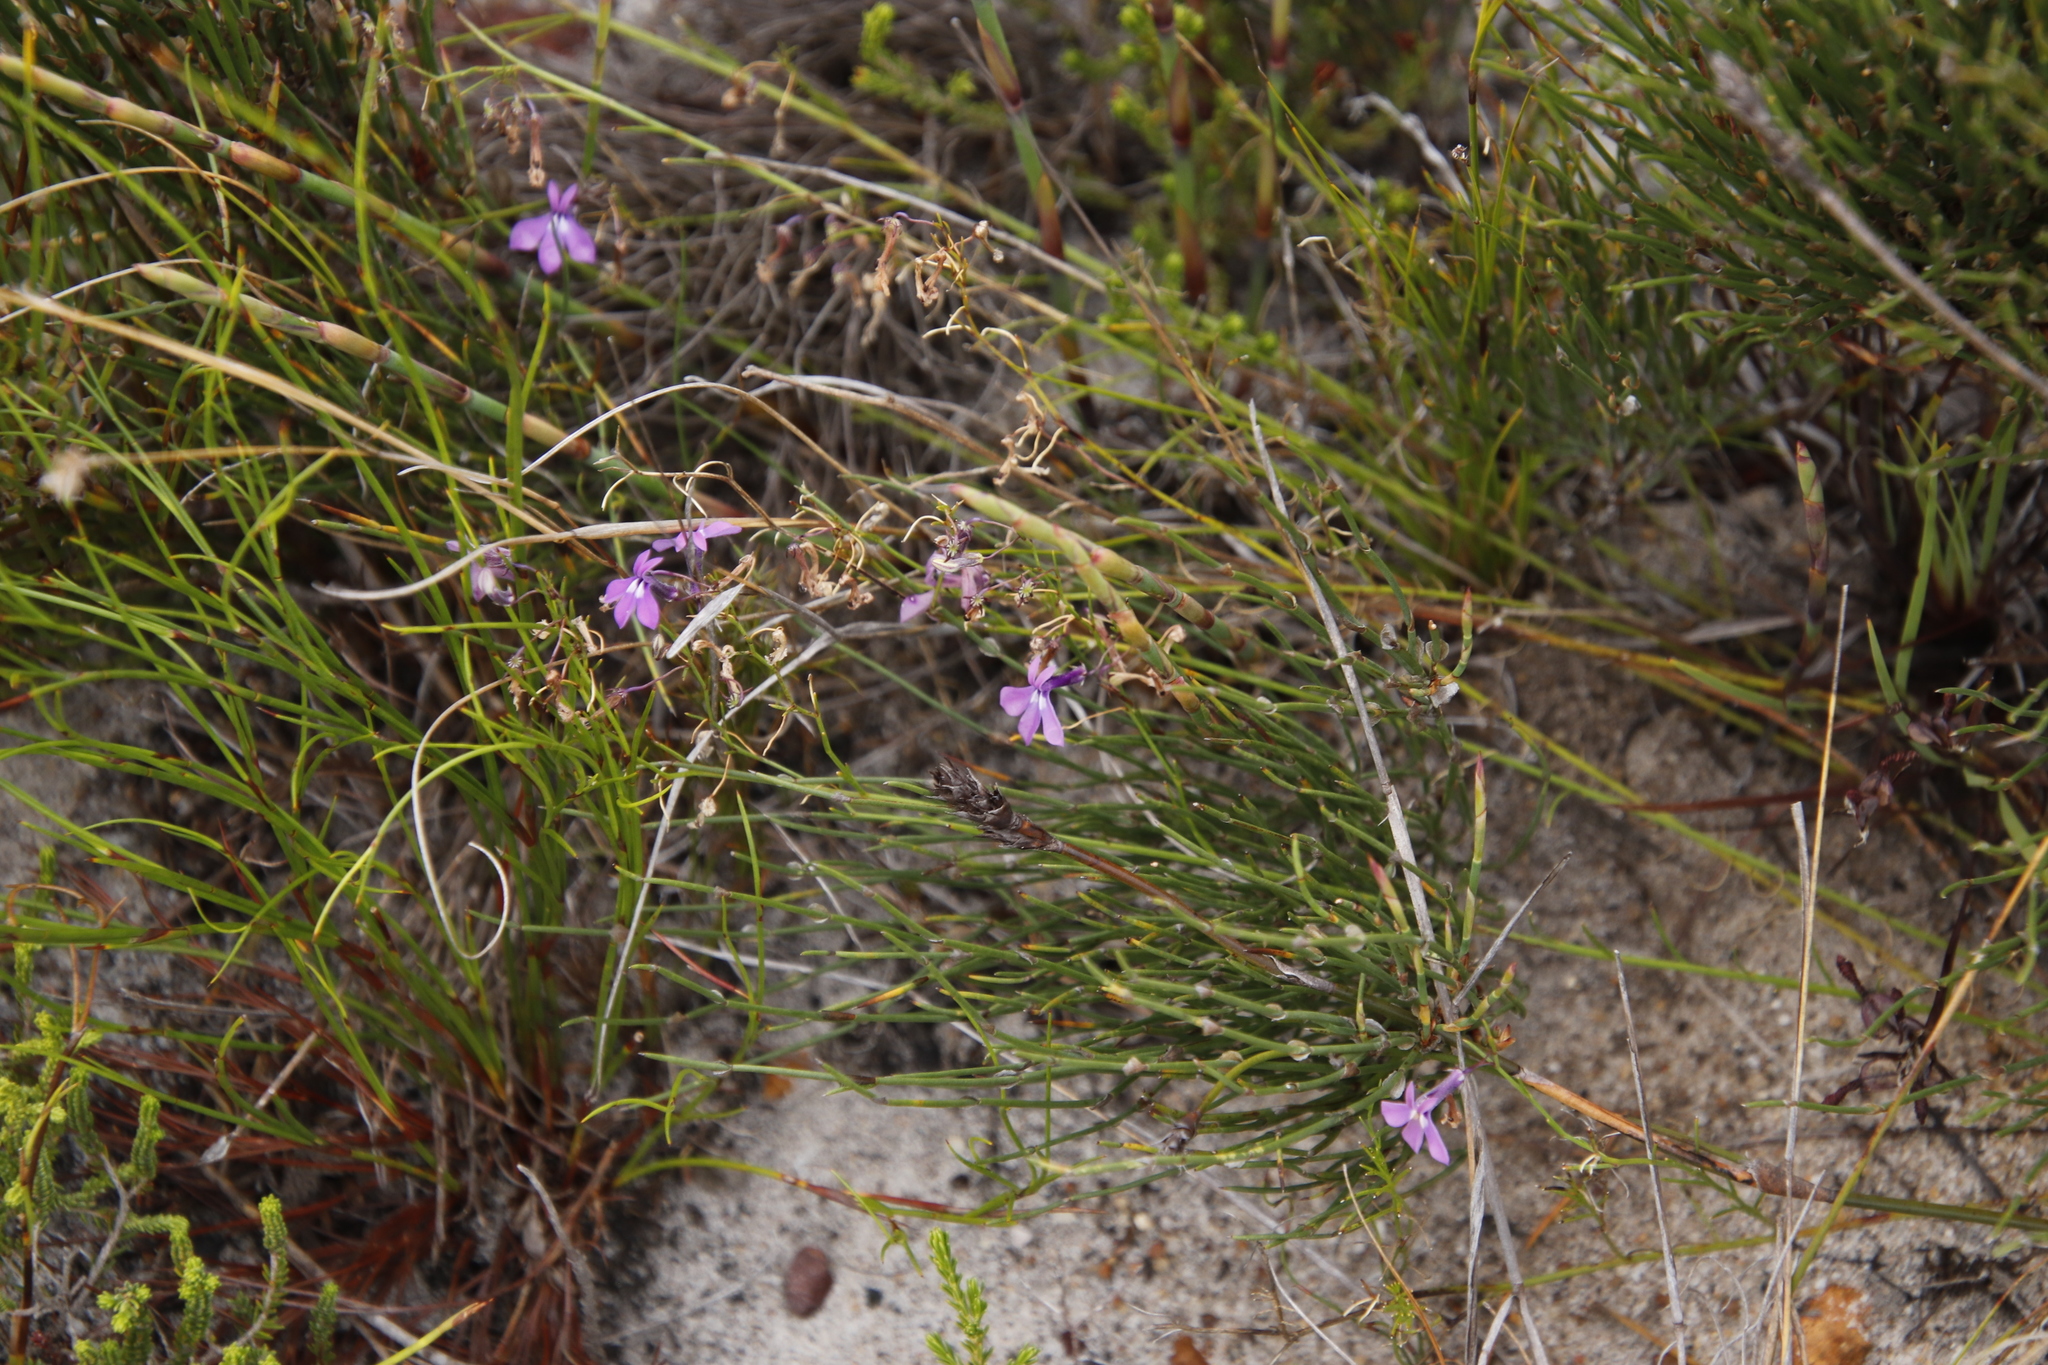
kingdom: Plantae
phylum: Tracheophyta
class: Magnoliopsida
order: Asterales
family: Campanulaceae
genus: Lobelia
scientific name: Lobelia setacea
